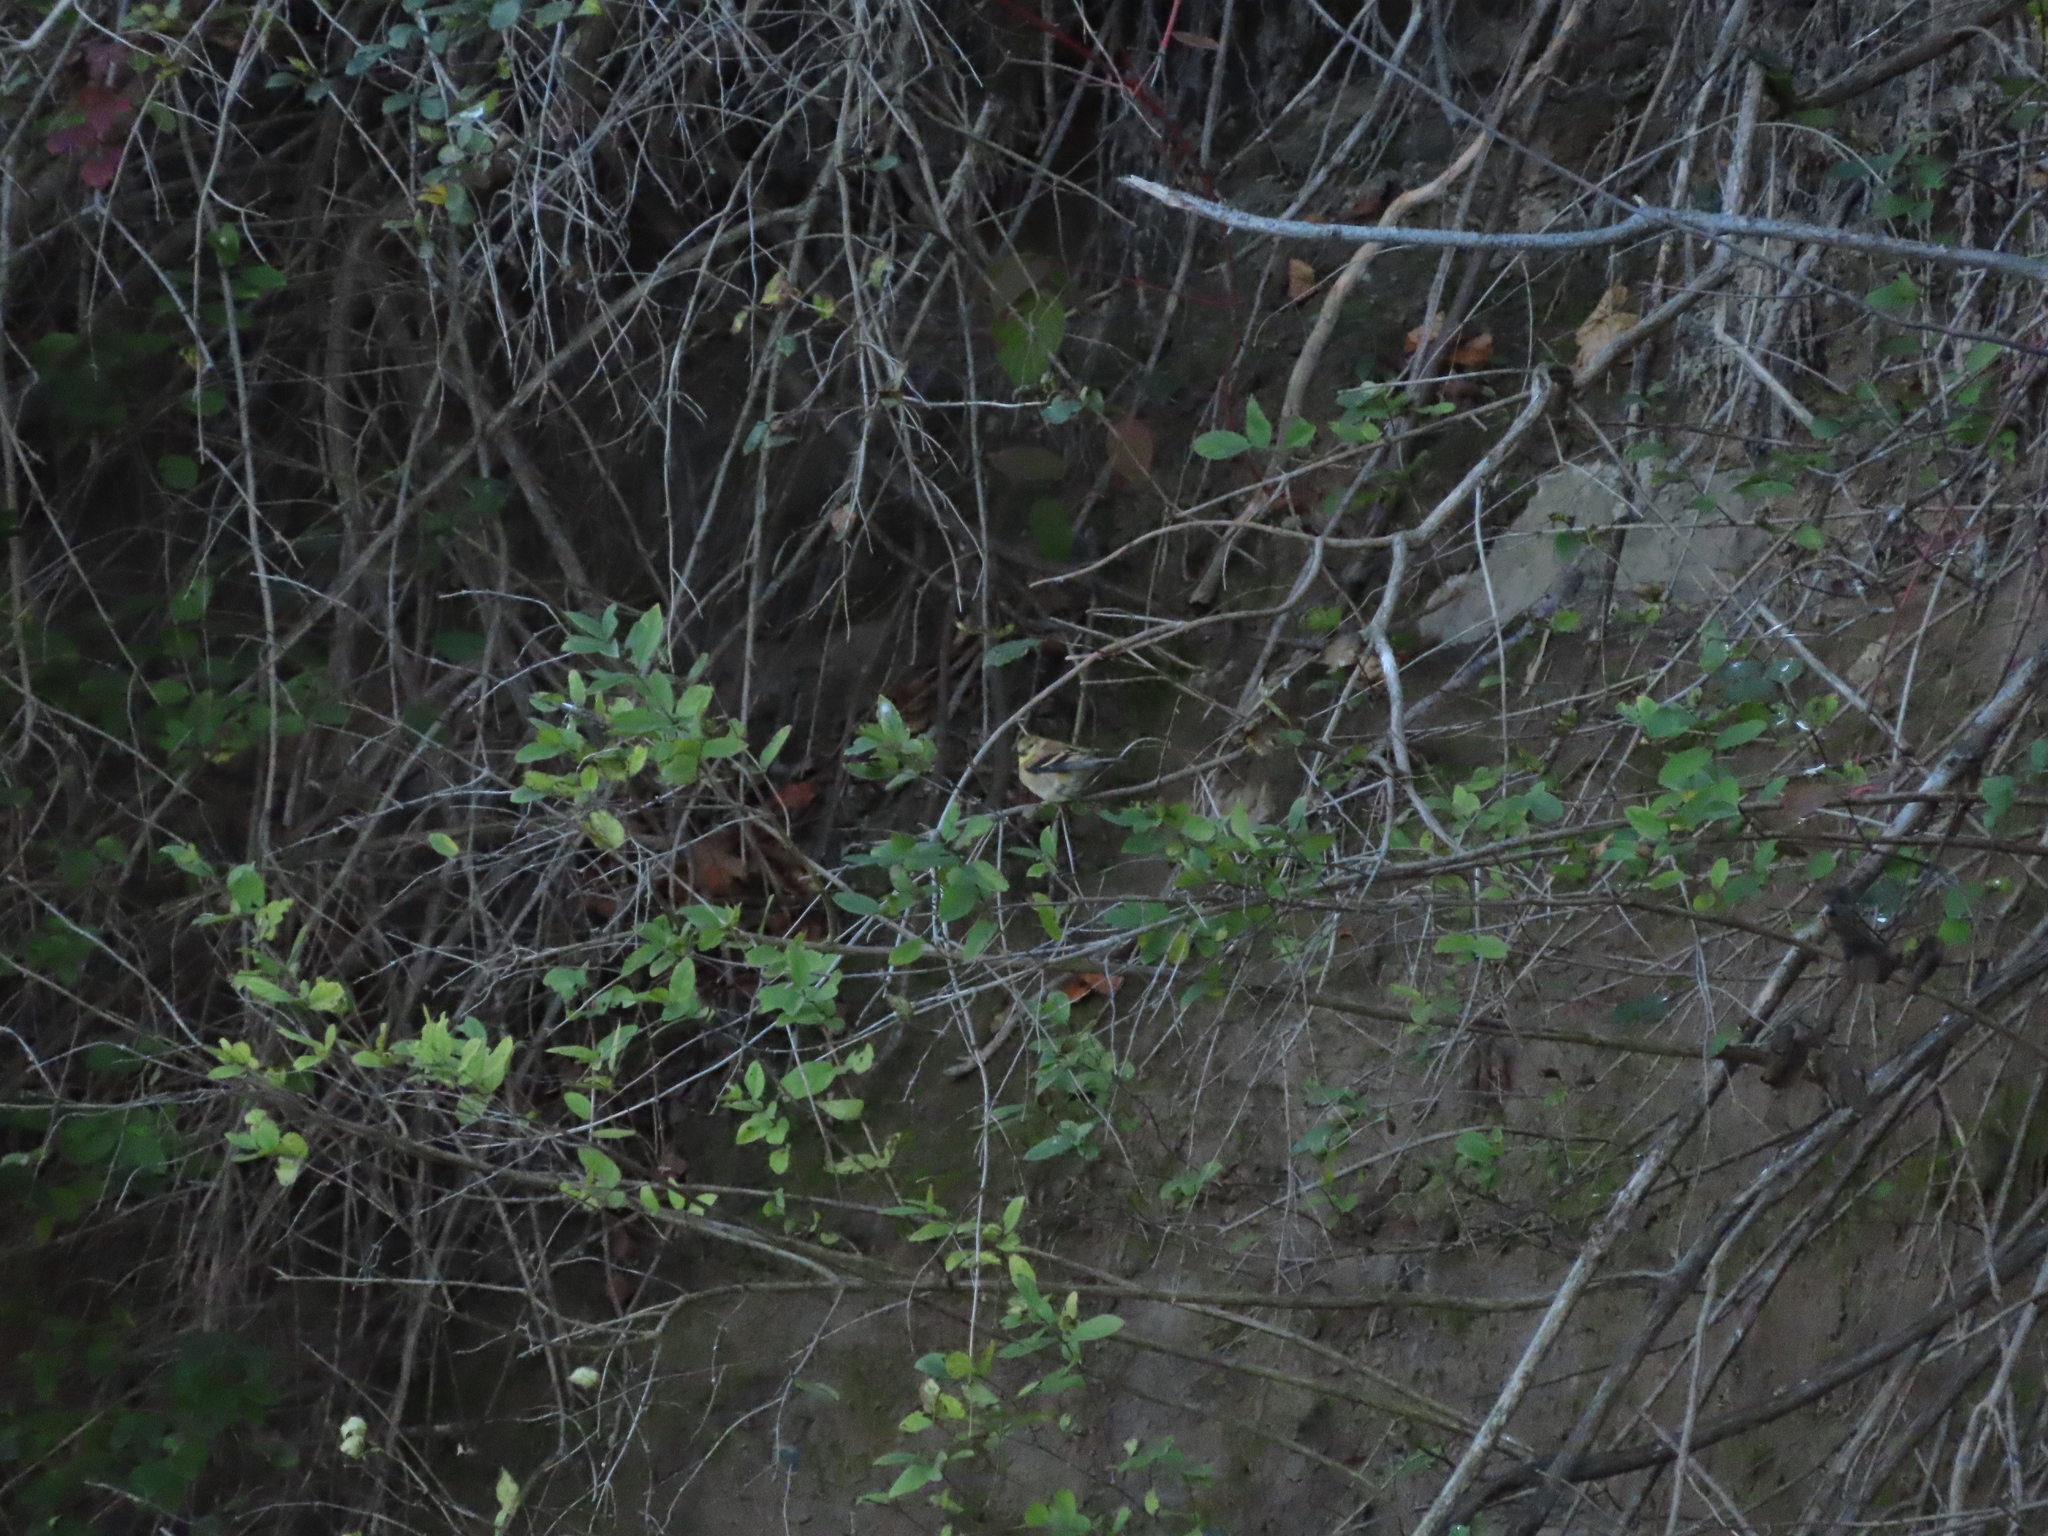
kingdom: Animalia
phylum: Chordata
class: Aves
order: Passeriformes
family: Fringillidae
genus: Spinus
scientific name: Spinus tristis
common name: American goldfinch
